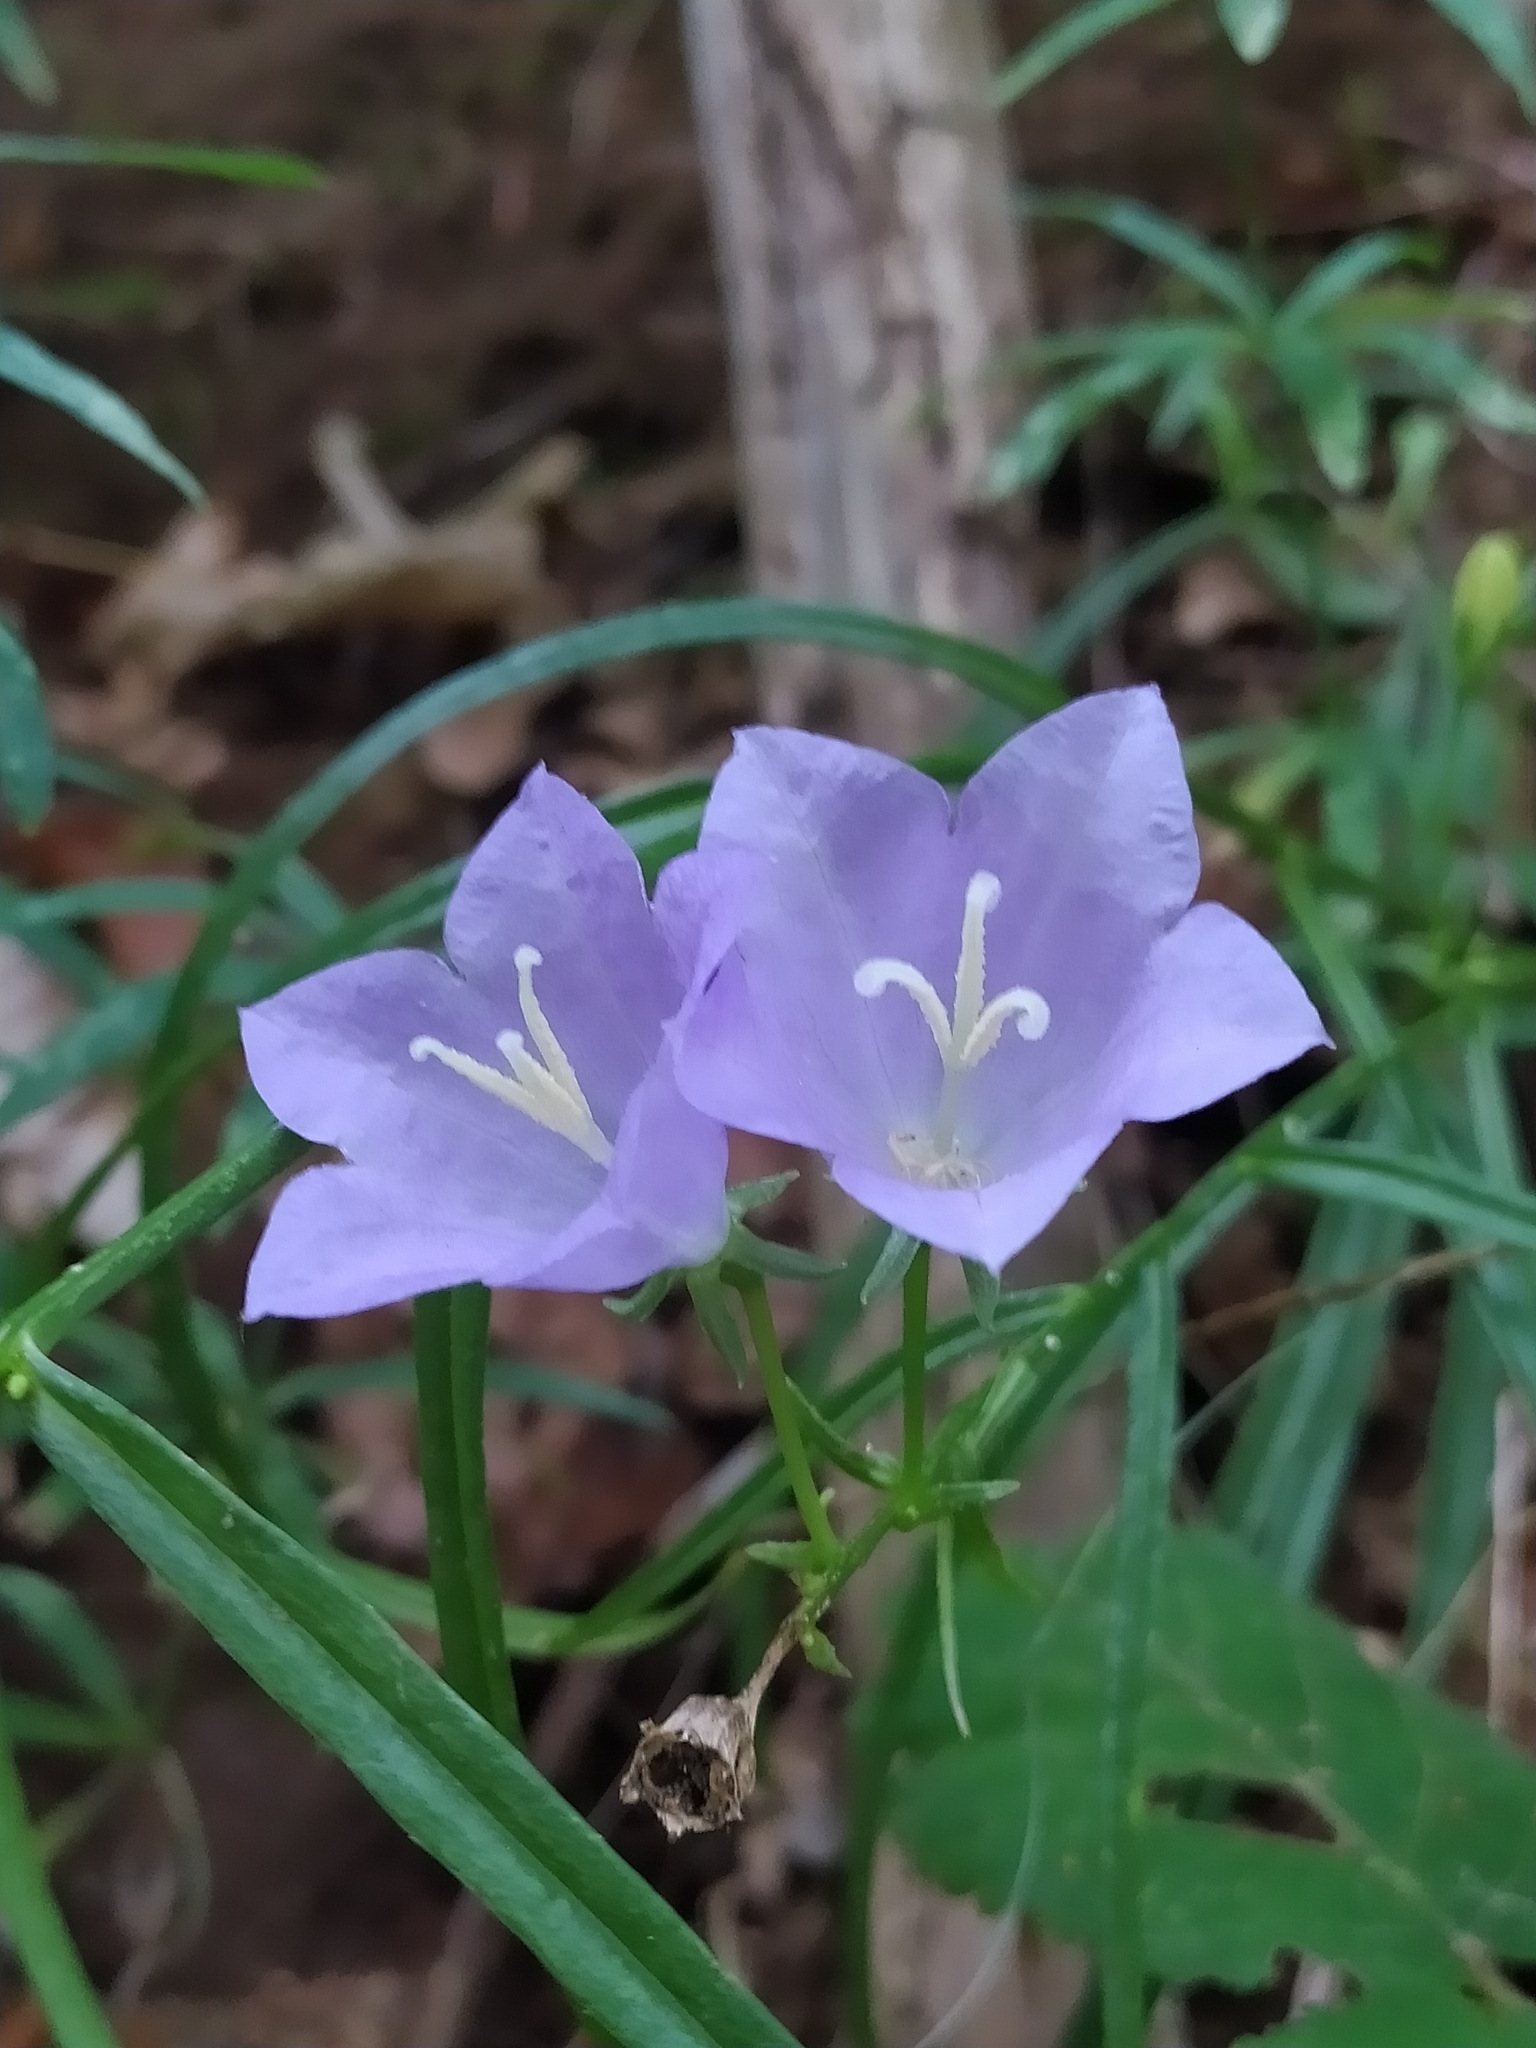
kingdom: Plantae
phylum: Tracheophyta
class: Magnoliopsida
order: Asterales
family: Campanulaceae
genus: Campanula
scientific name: Campanula persicifolia
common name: Peach-leaved bellflower
